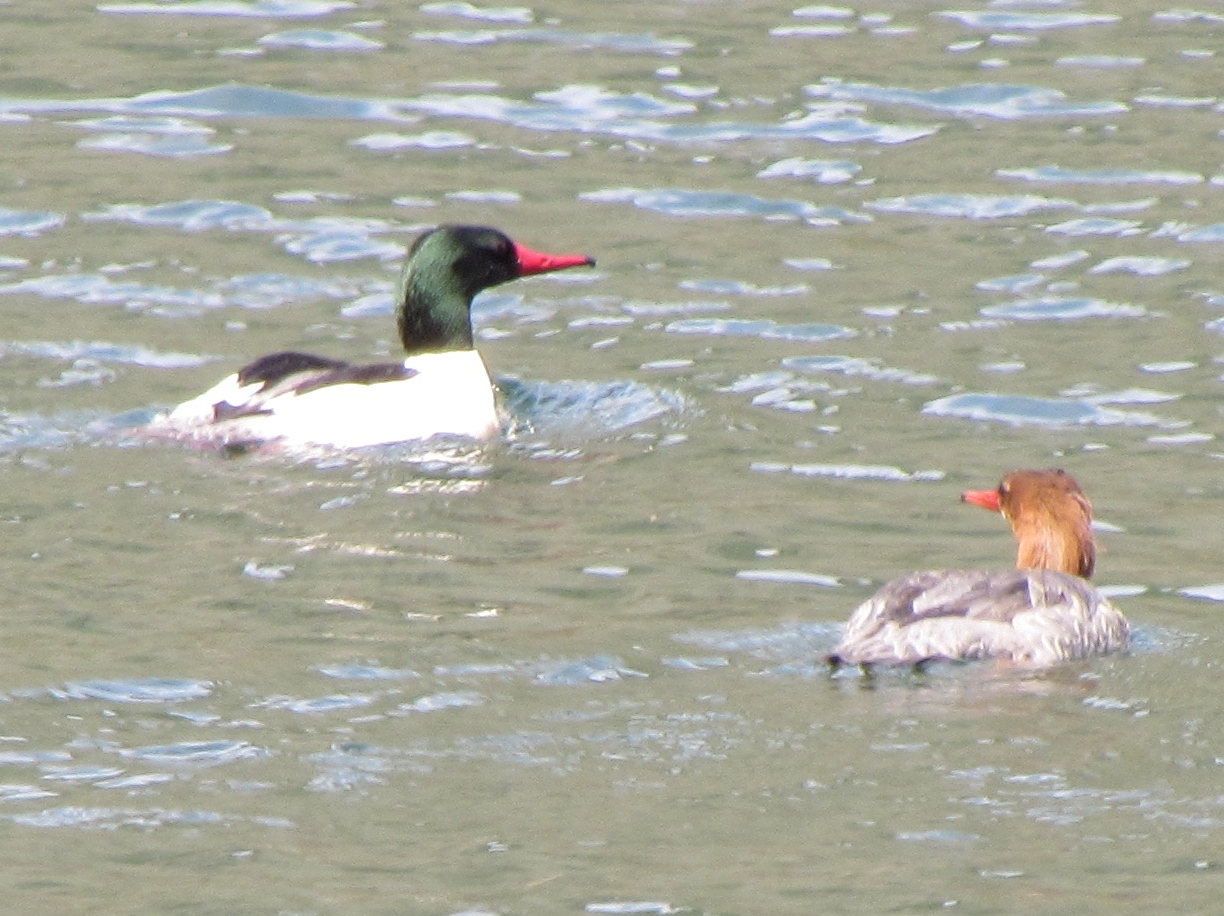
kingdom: Animalia
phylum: Chordata
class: Aves
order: Anseriformes
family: Anatidae
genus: Mergus
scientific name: Mergus merganser
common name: Common merganser
